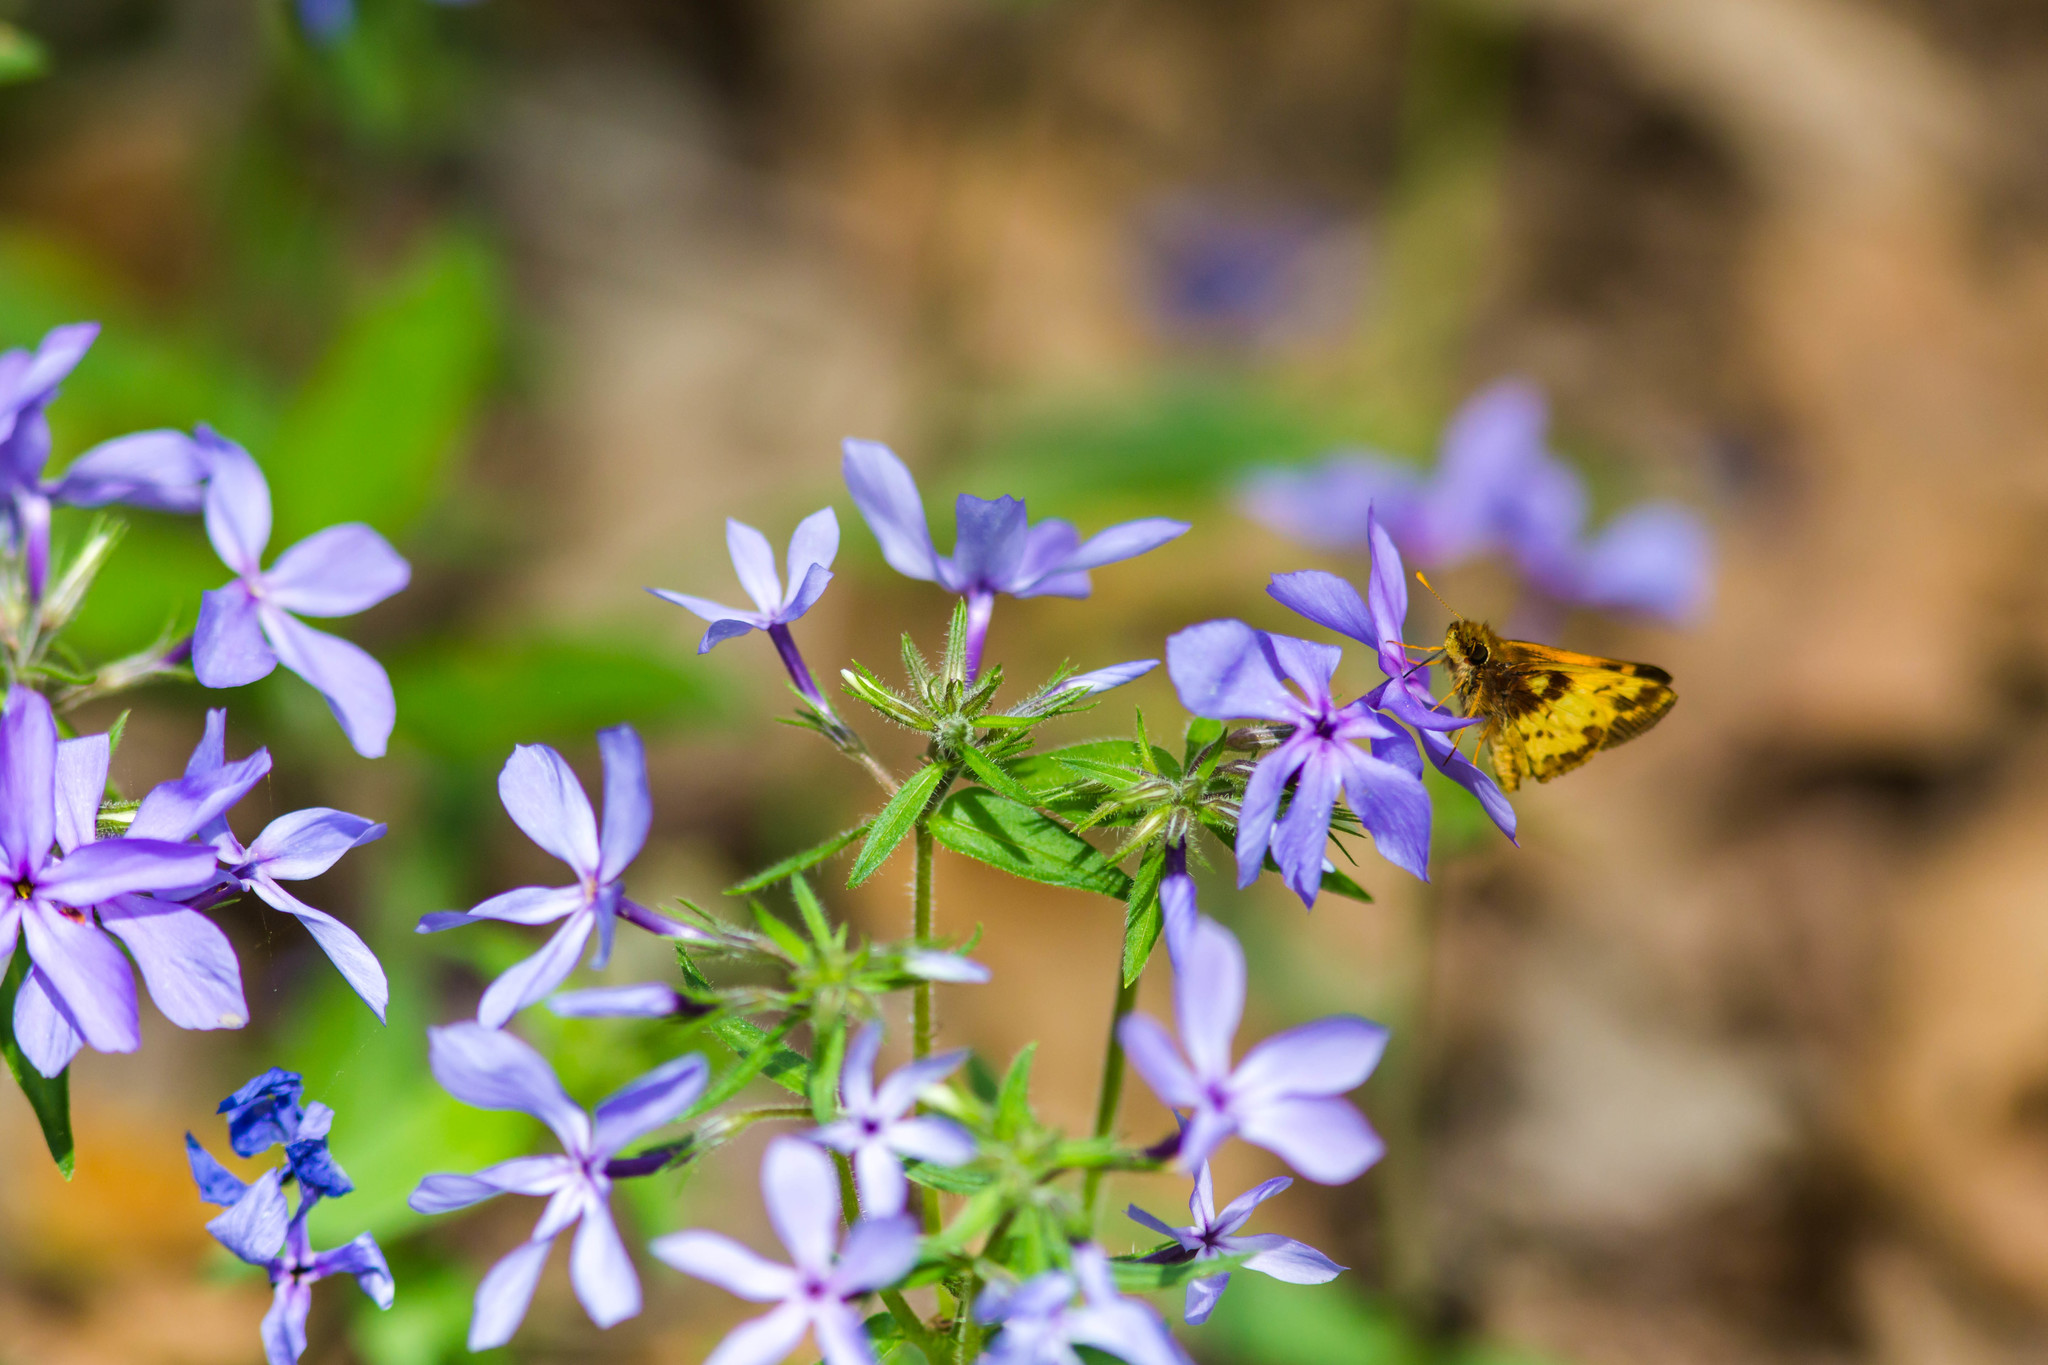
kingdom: Animalia
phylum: Arthropoda
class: Insecta
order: Lepidoptera
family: Hesperiidae
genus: Lon
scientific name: Lon zabulon
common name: Zabulon skipper
